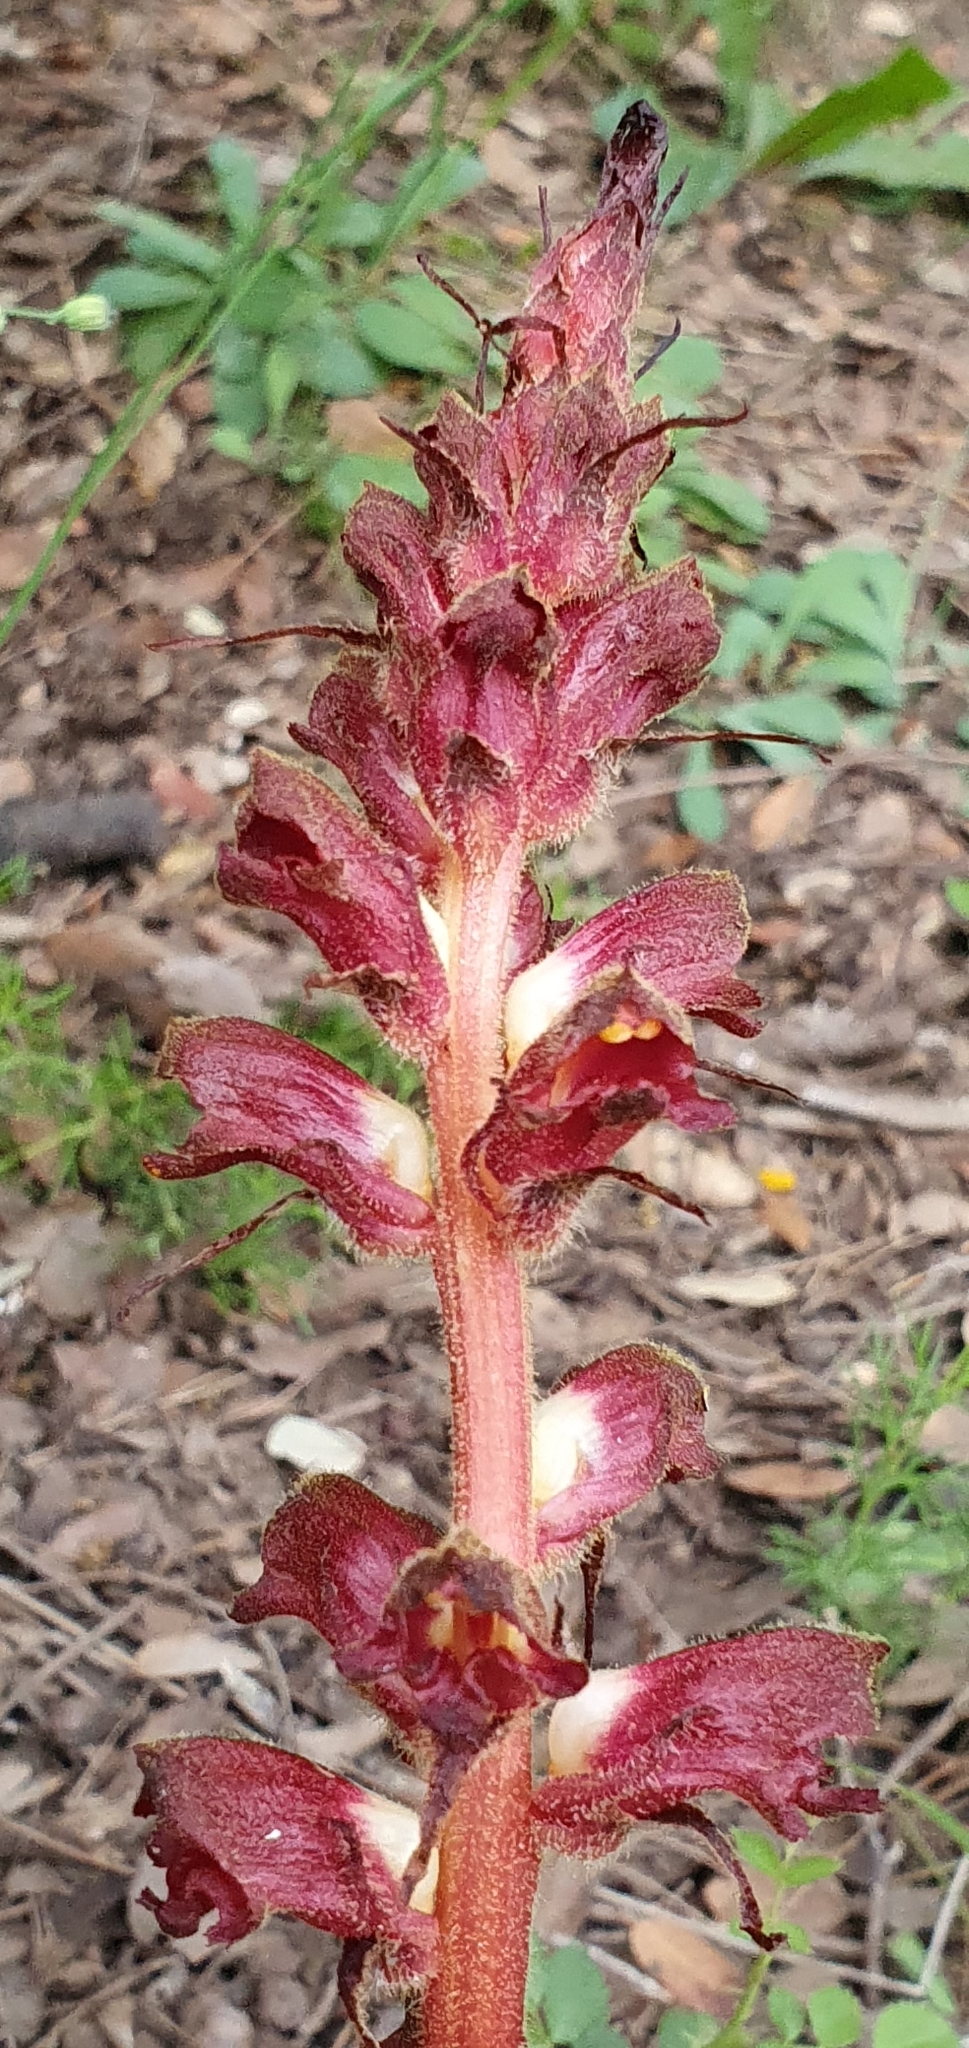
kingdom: Plantae
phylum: Tracheophyta
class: Magnoliopsida
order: Lamiales
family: Orobanchaceae
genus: Orobanche
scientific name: Orobanche variegata
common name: Variegated broomrape
